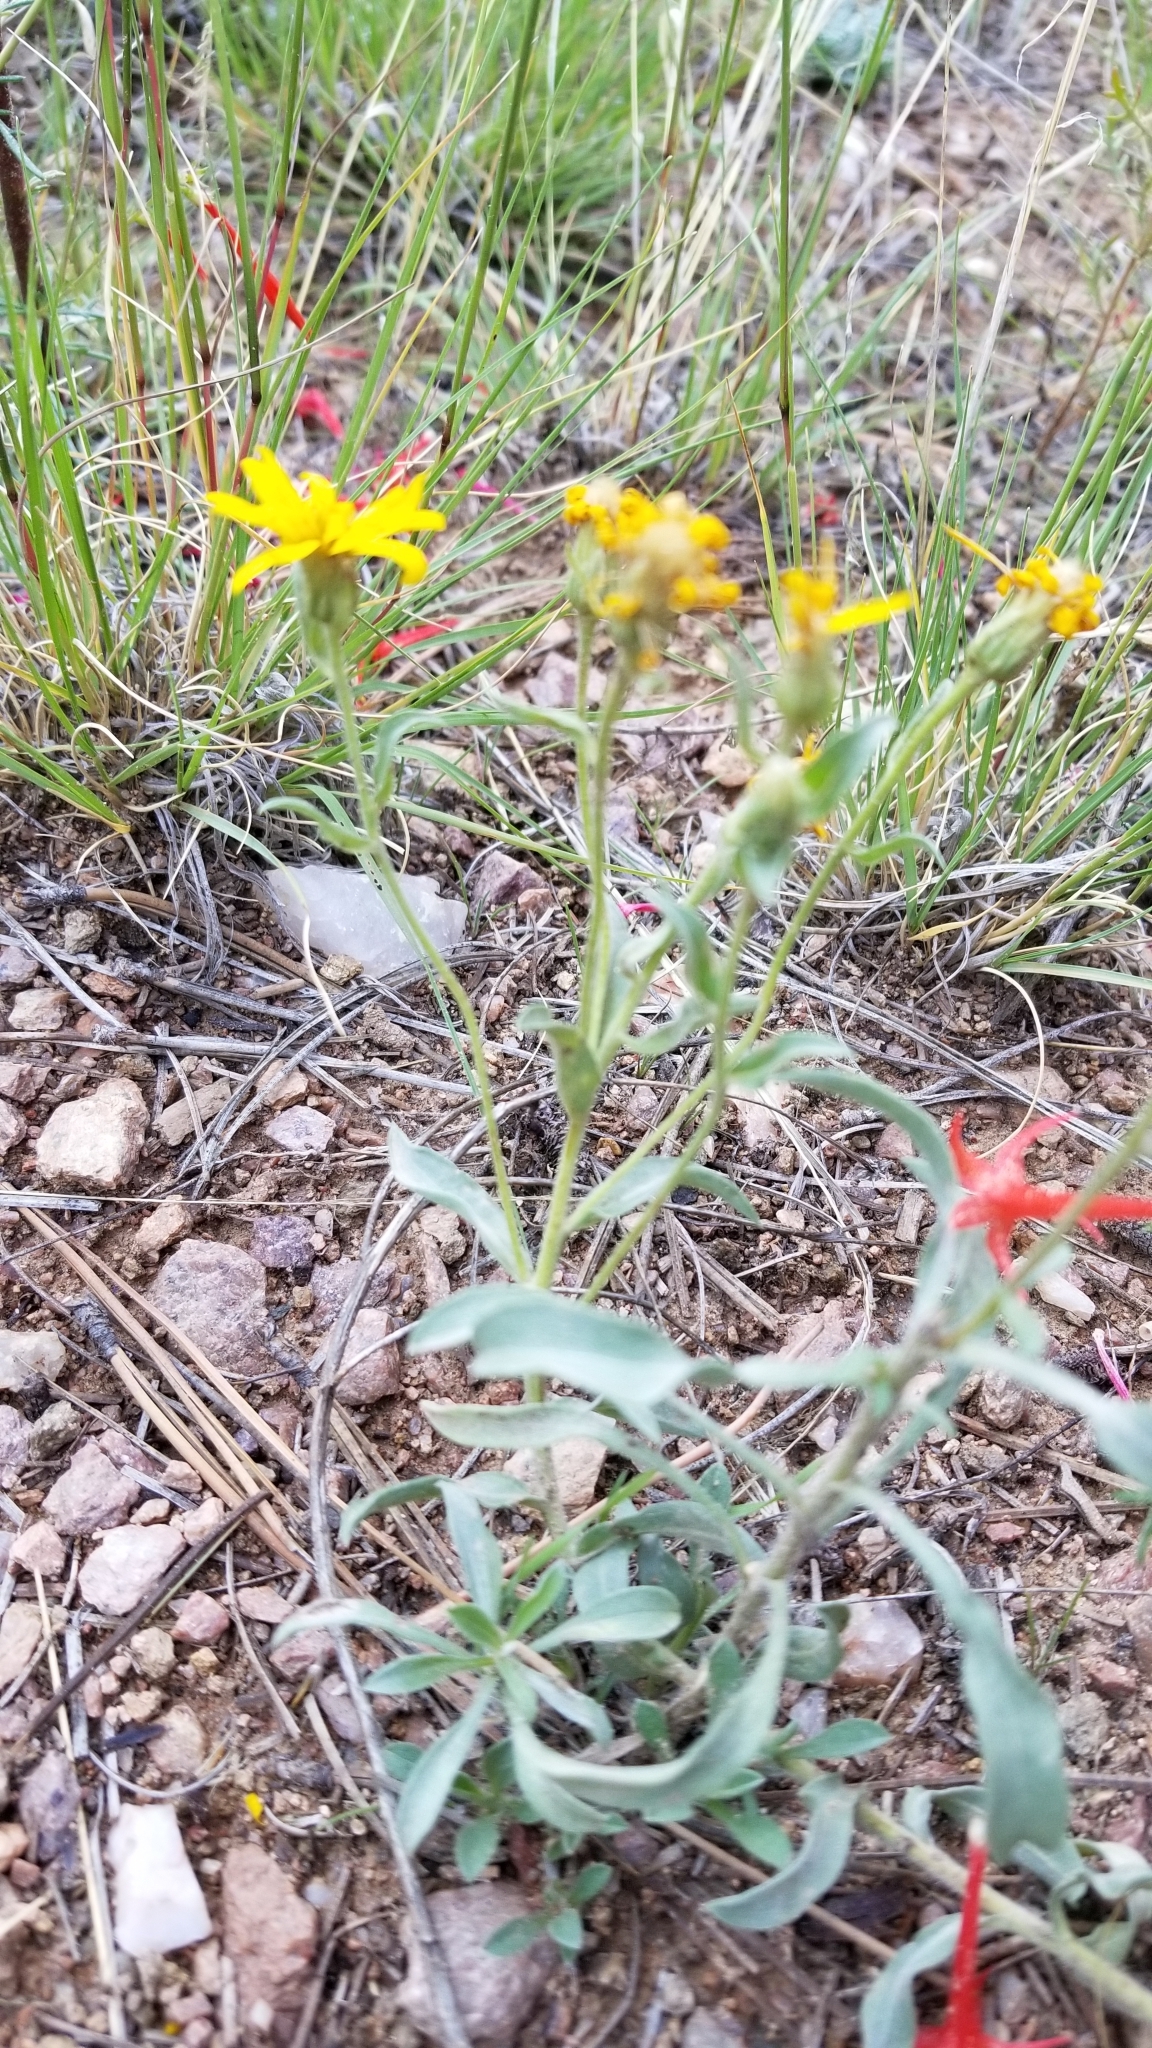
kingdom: Plantae
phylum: Tracheophyta
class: Magnoliopsida
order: Asterales
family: Asteraceae
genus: Heterotheca
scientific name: Heterotheca pedunculata
